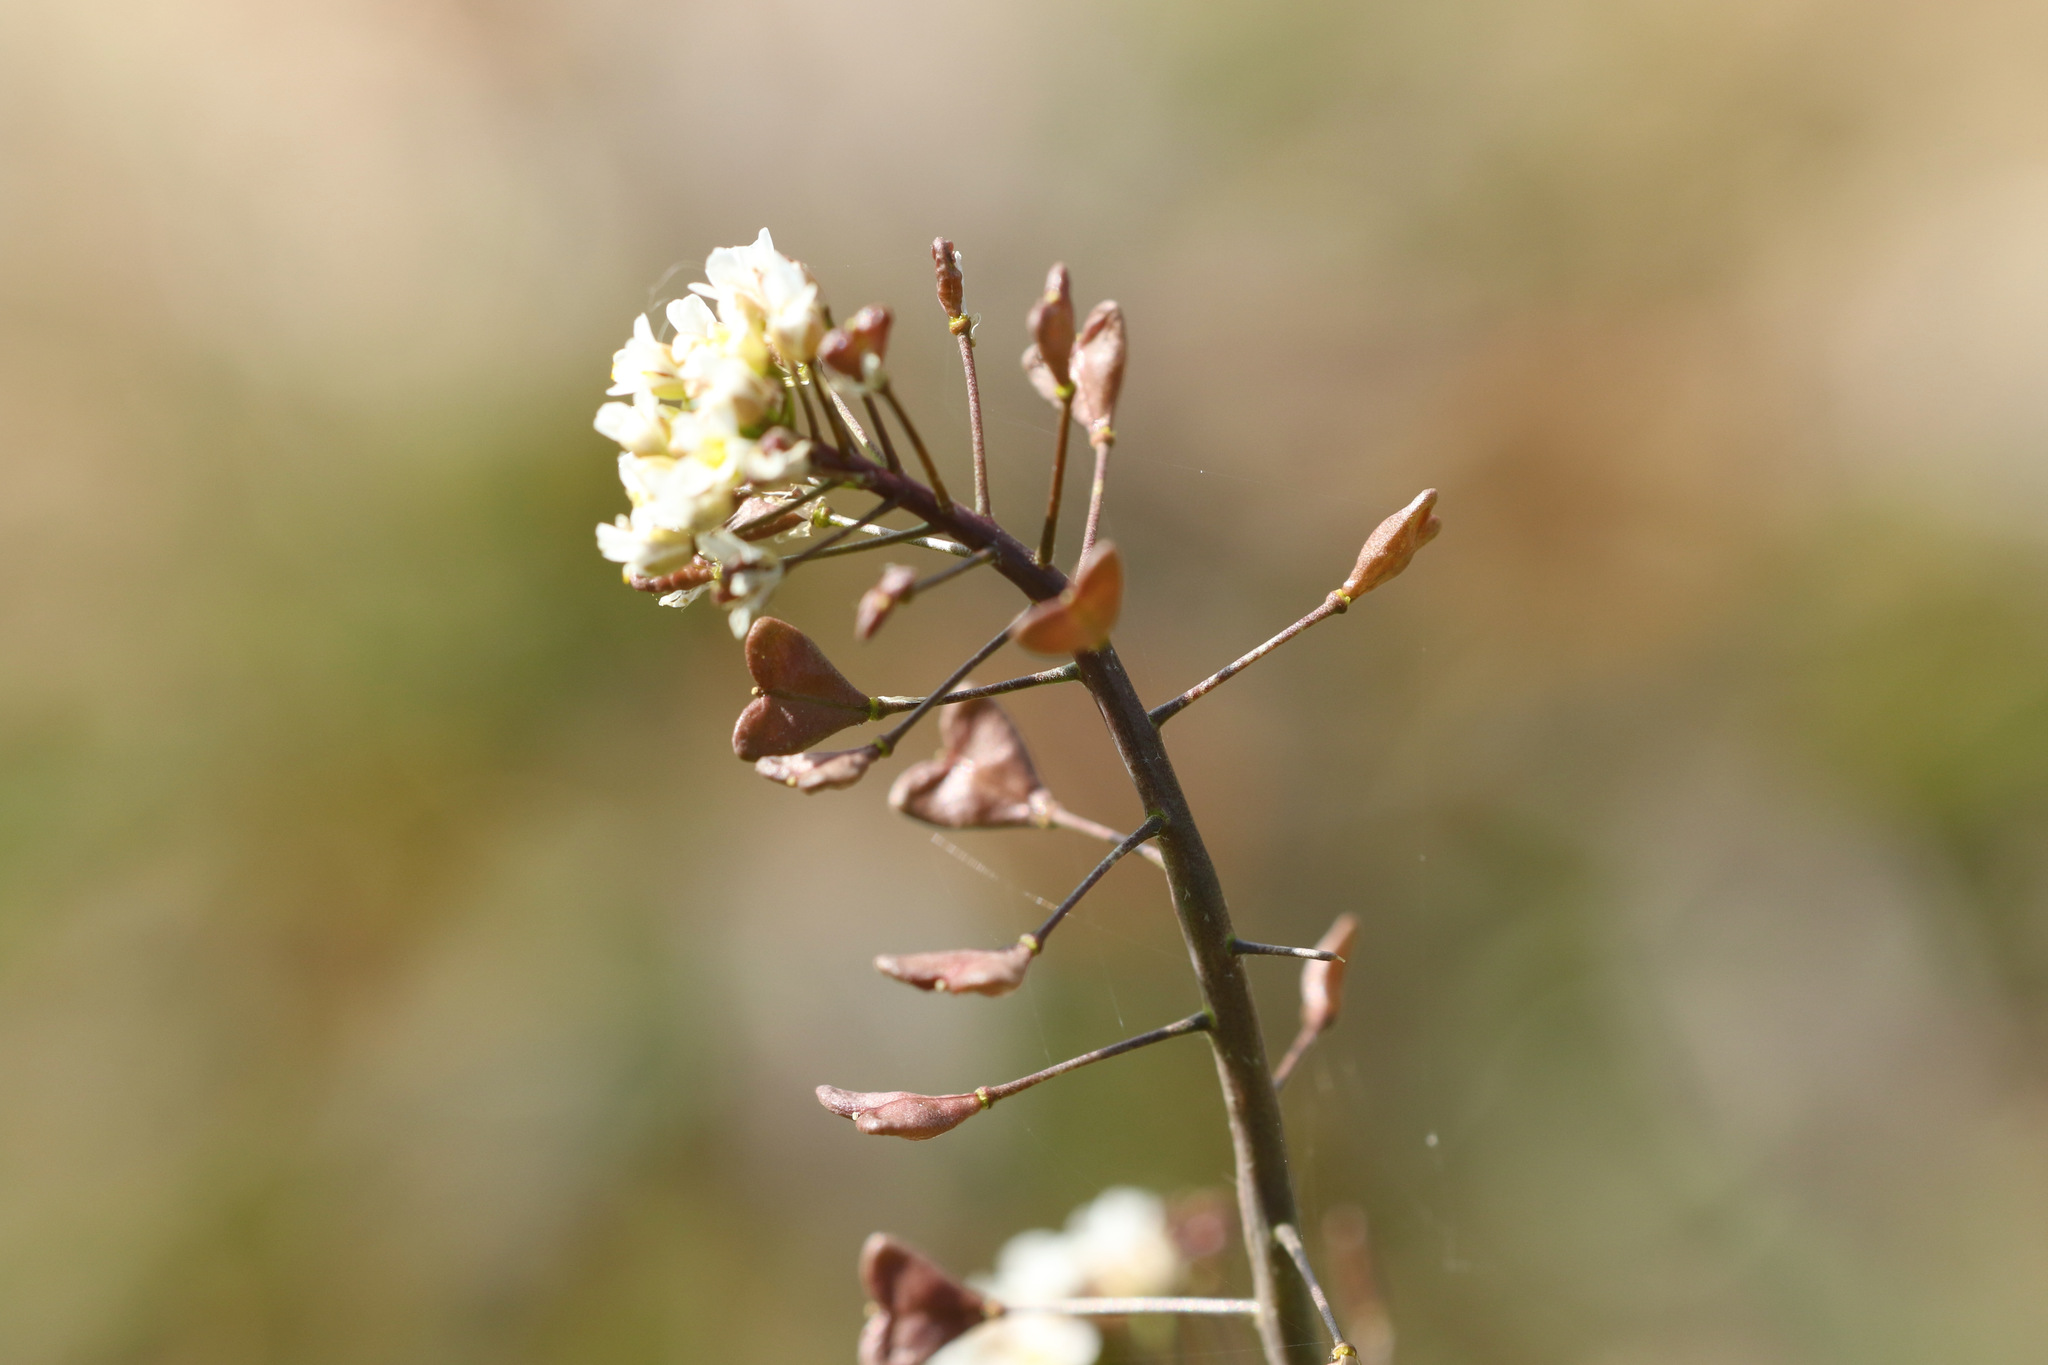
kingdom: Plantae
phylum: Tracheophyta
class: Magnoliopsida
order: Brassicales
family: Brassicaceae
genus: Capsella
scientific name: Capsella bursa-pastoris
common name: Shepherd's purse
